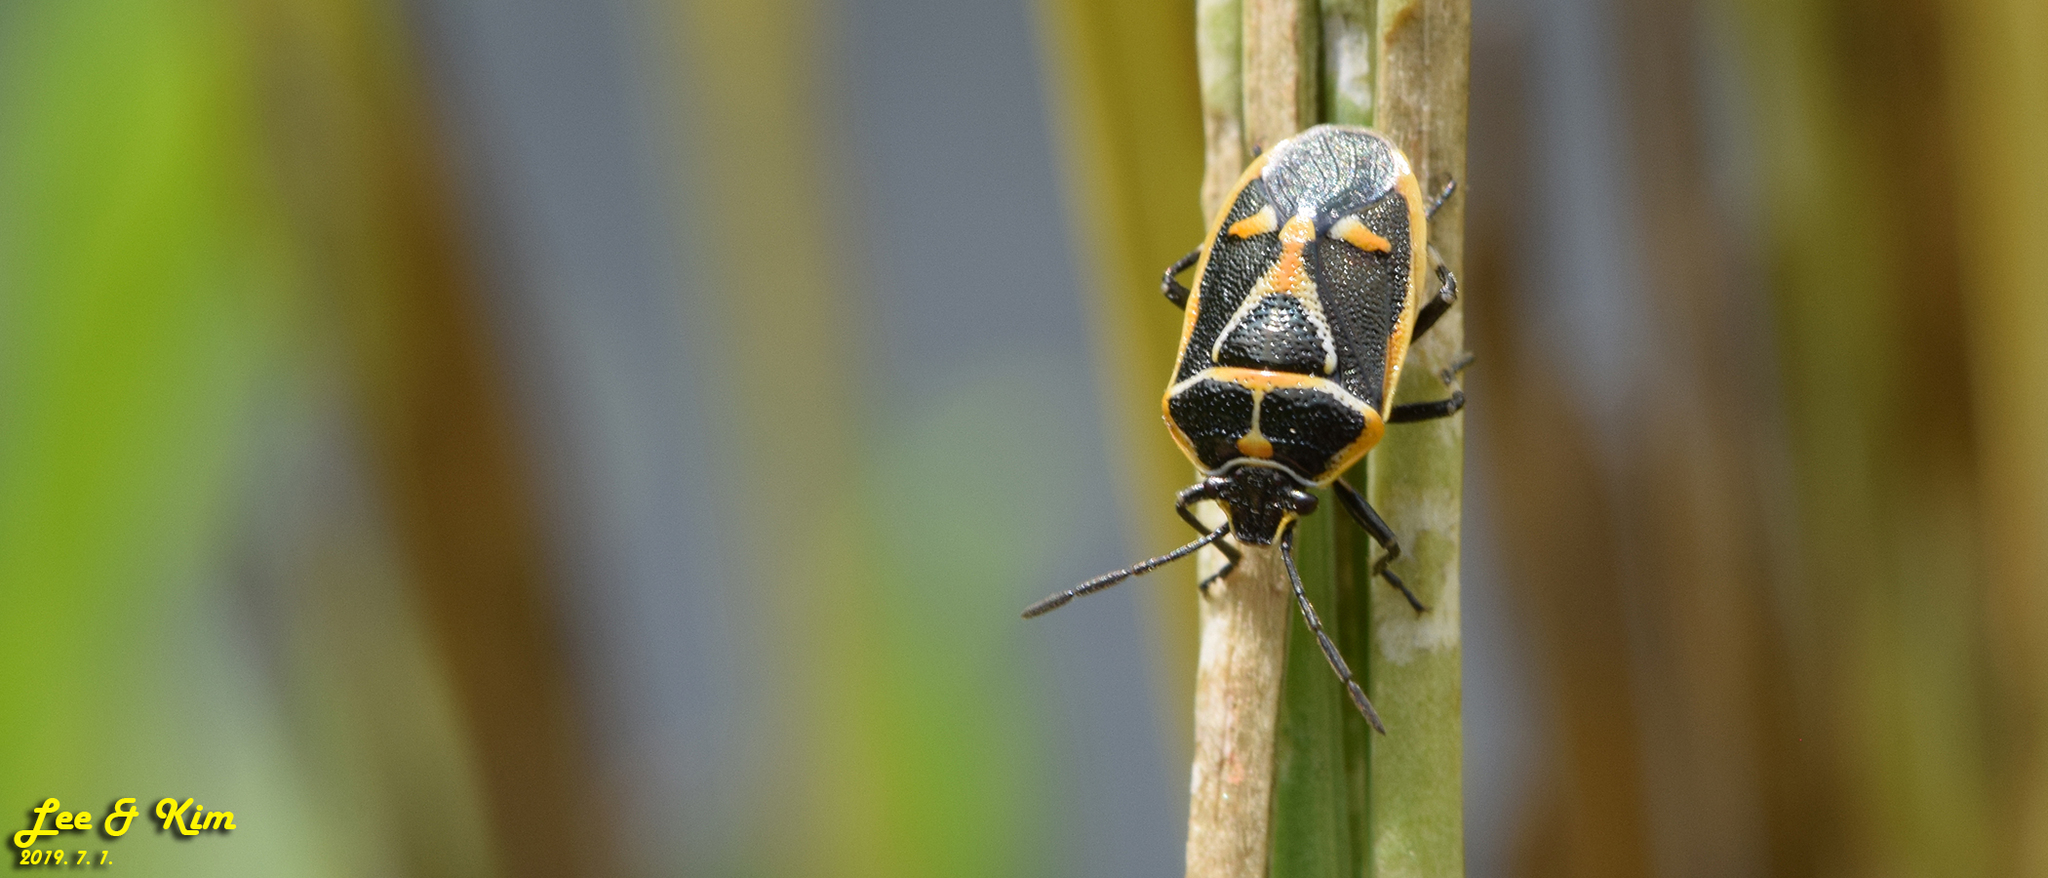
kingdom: Animalia
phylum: Arthropoda
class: Insecta
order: Hemiptera
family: Pentatomidae
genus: Eurydema
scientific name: Eurydema gebleri
